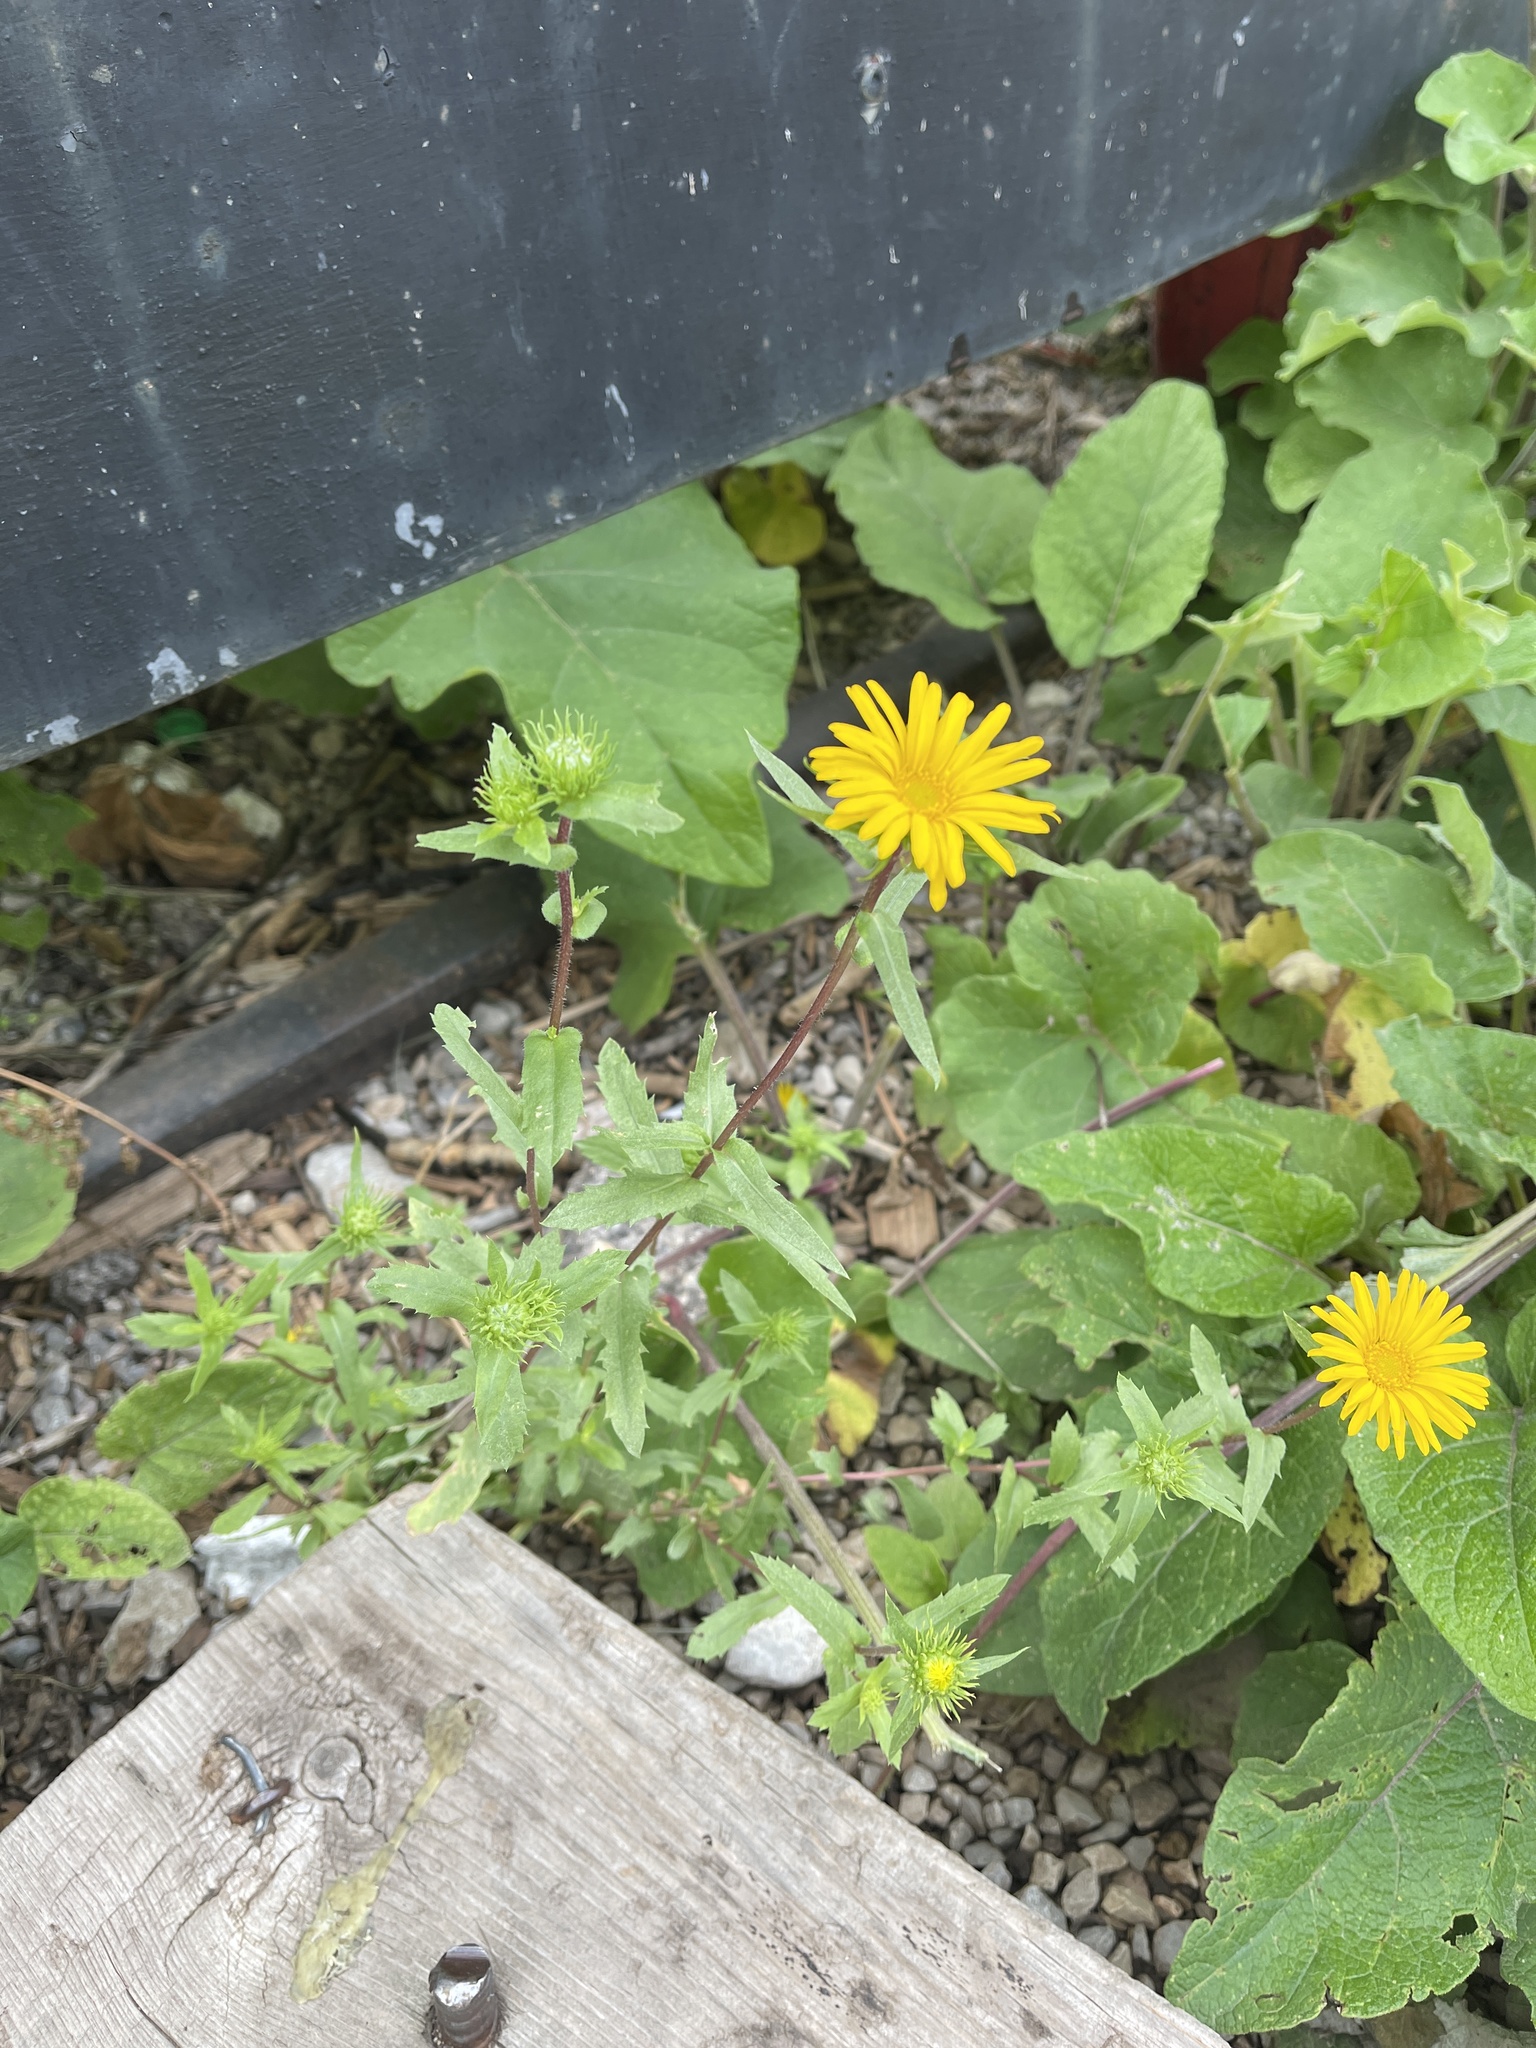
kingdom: Plantae
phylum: Tracheophyta
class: Magnoliopsida
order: Asterales
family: Asteraceae
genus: Grindelia
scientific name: Grindelia scabra
